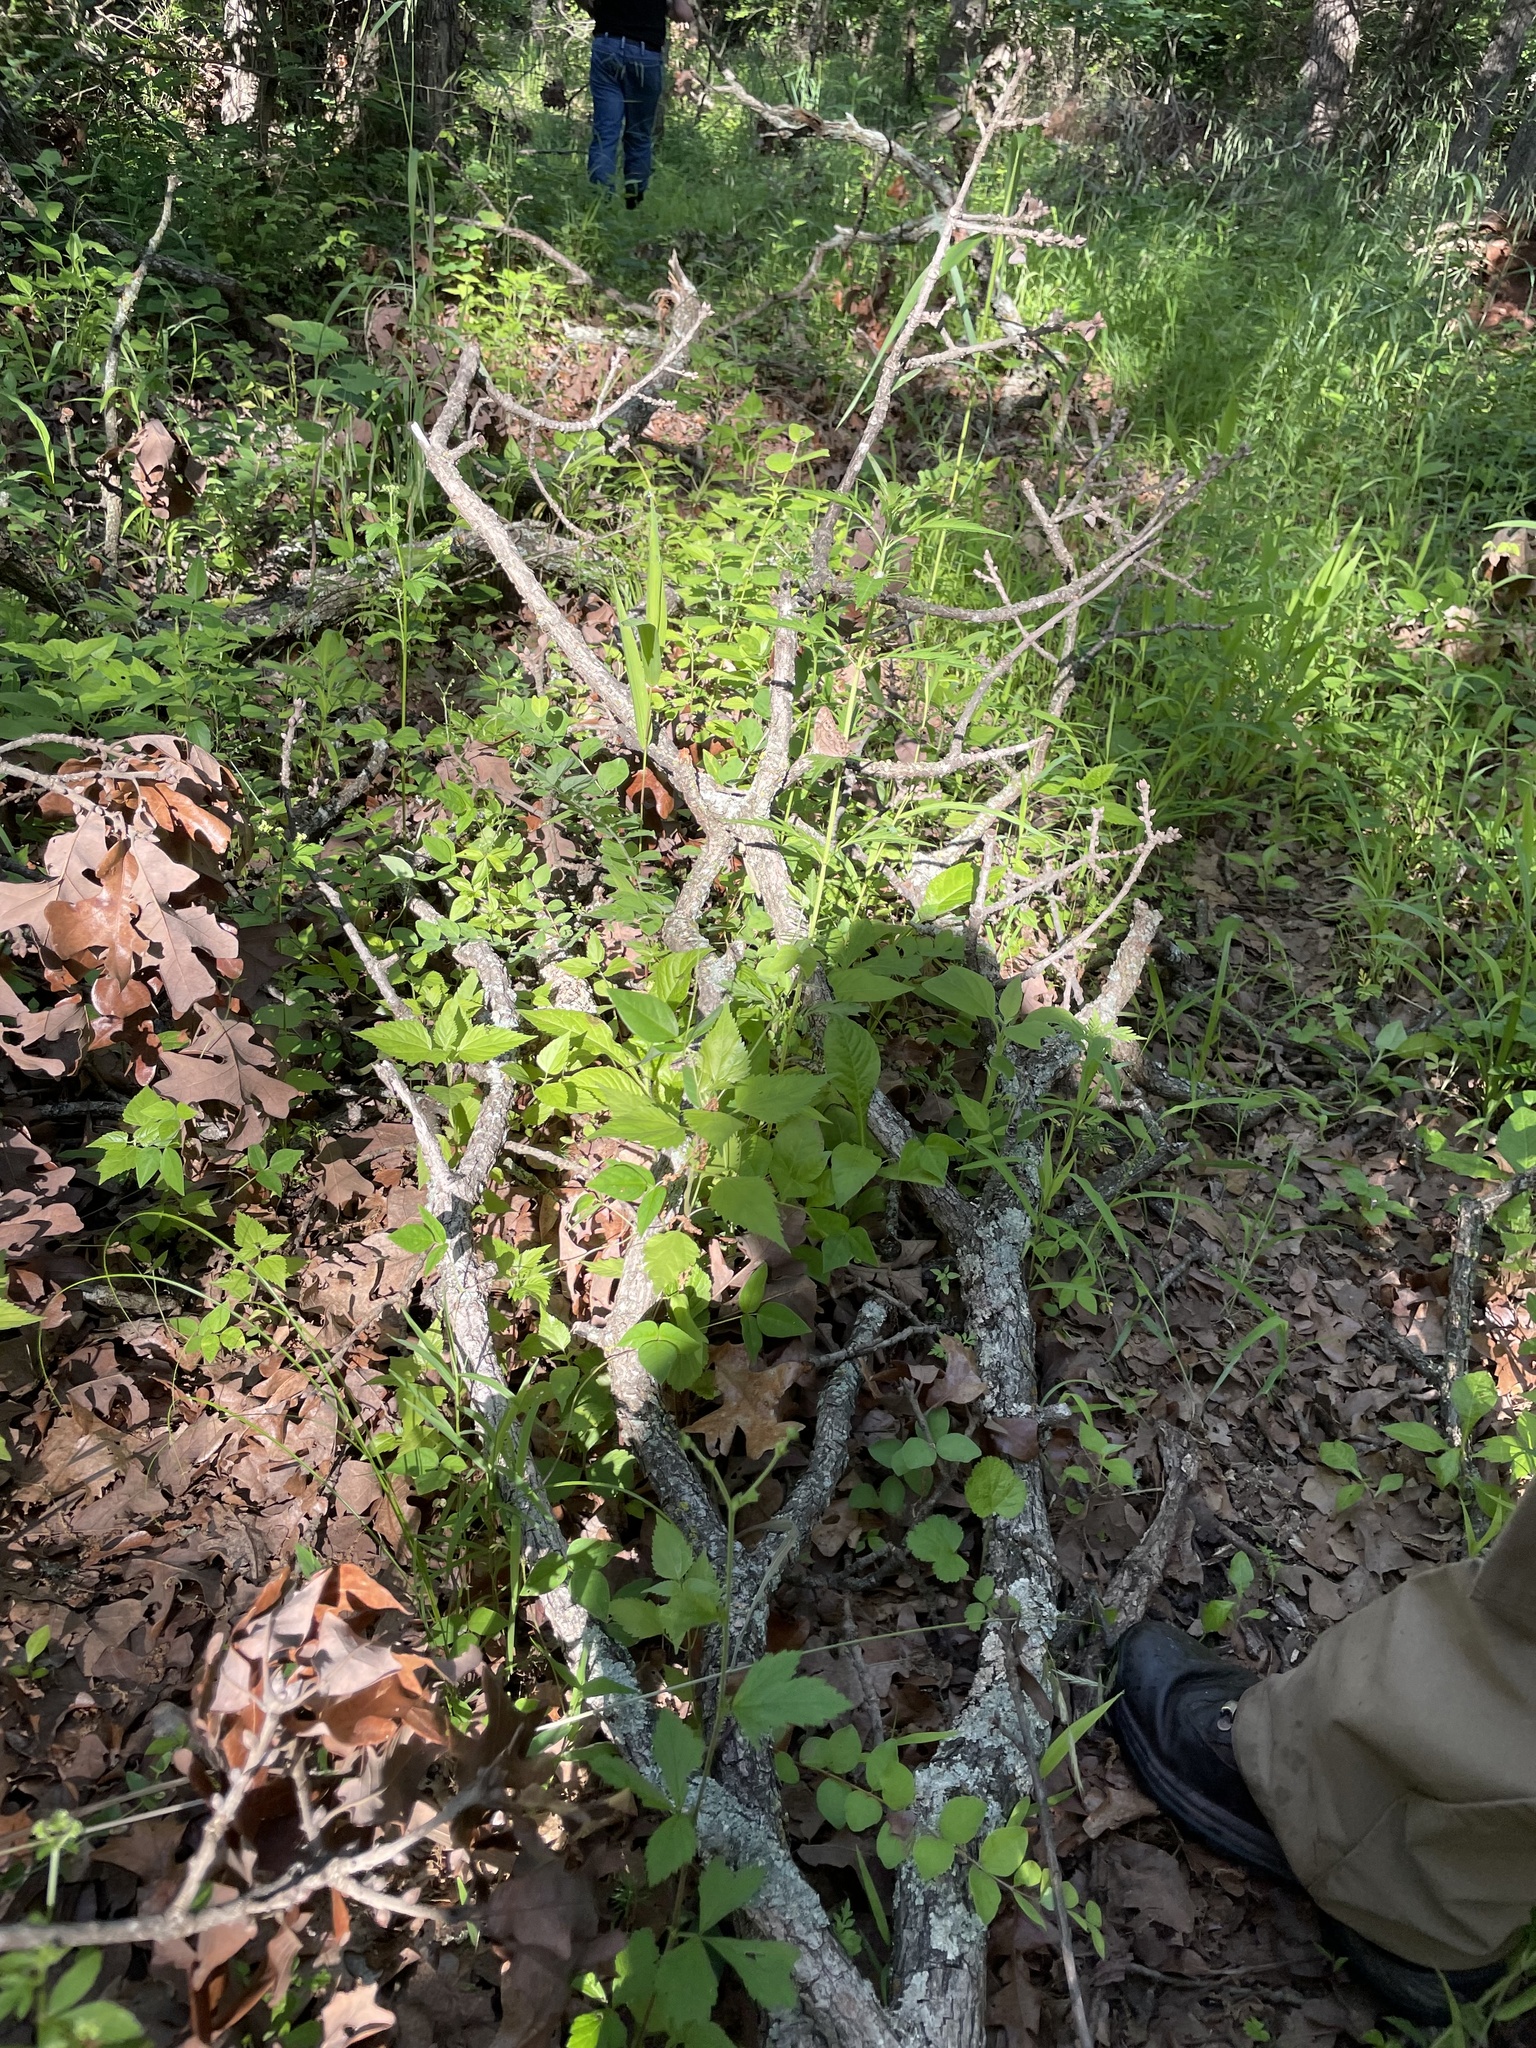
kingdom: Animalia
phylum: Arthropoda
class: Insecta
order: Lepidoptera
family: Nymphalidae
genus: Lethe
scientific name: Lethe anthedon
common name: Northern pearly-eye
